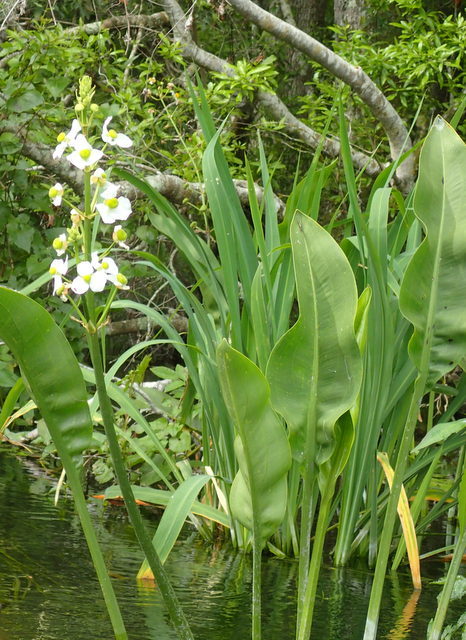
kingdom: Plantae
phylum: Tracheophyta
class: Liliopsida
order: Alismatales
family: Alismataceae
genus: Sagittaria
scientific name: Sagittaria lancifolia
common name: Lance-leaf arrowhead
